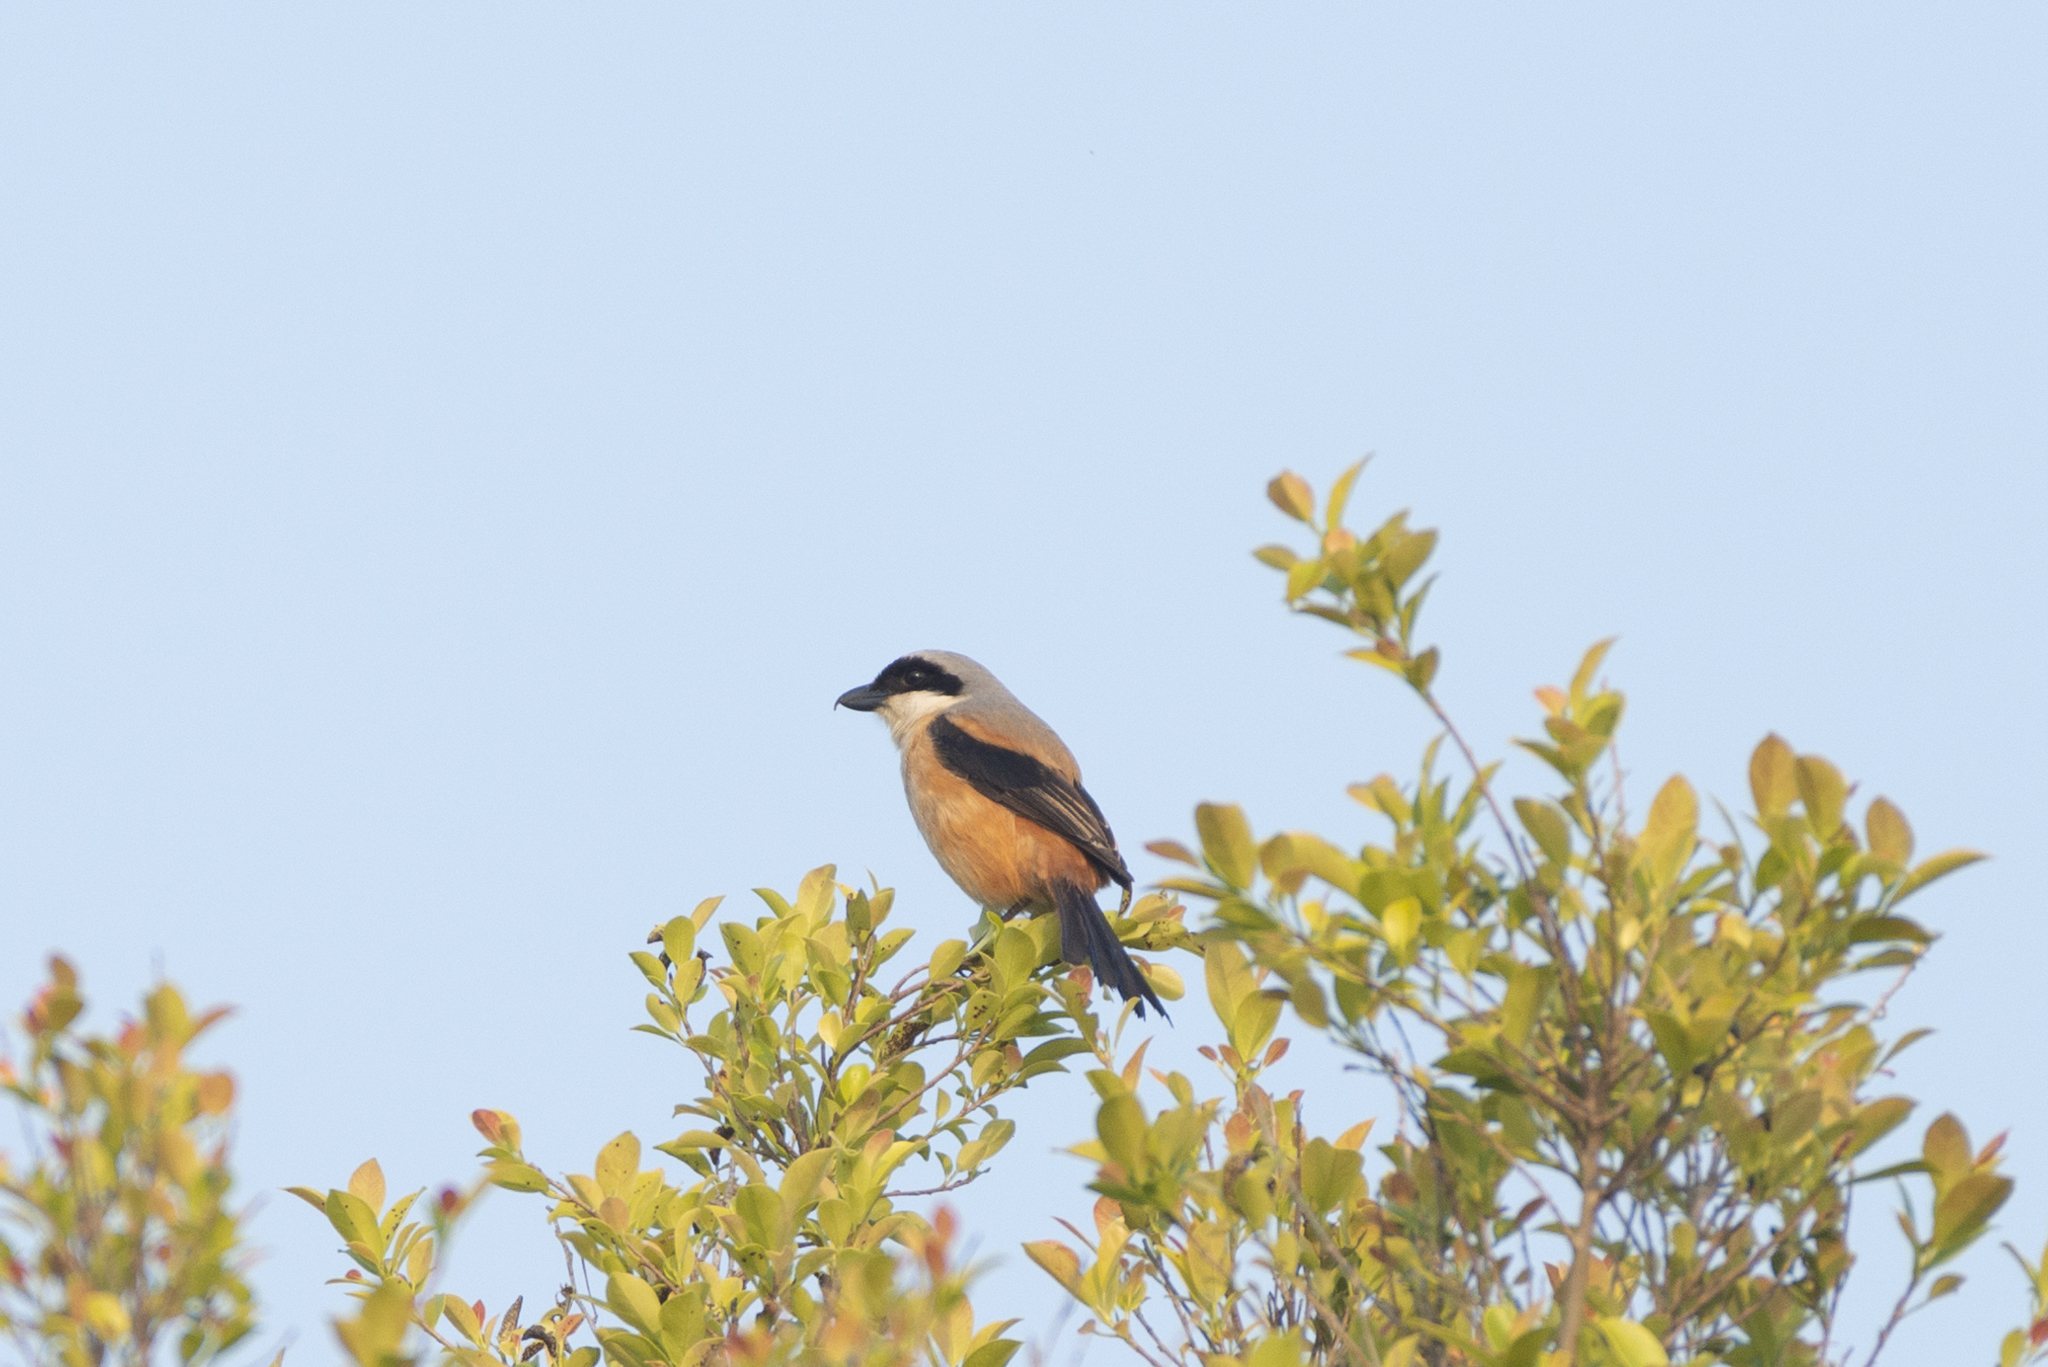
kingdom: Animalia
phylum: Chordata
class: Aves
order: Passeriformes
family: Laniidae
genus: Lanius
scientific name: Lanius schach
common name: Long-tailed shrike
